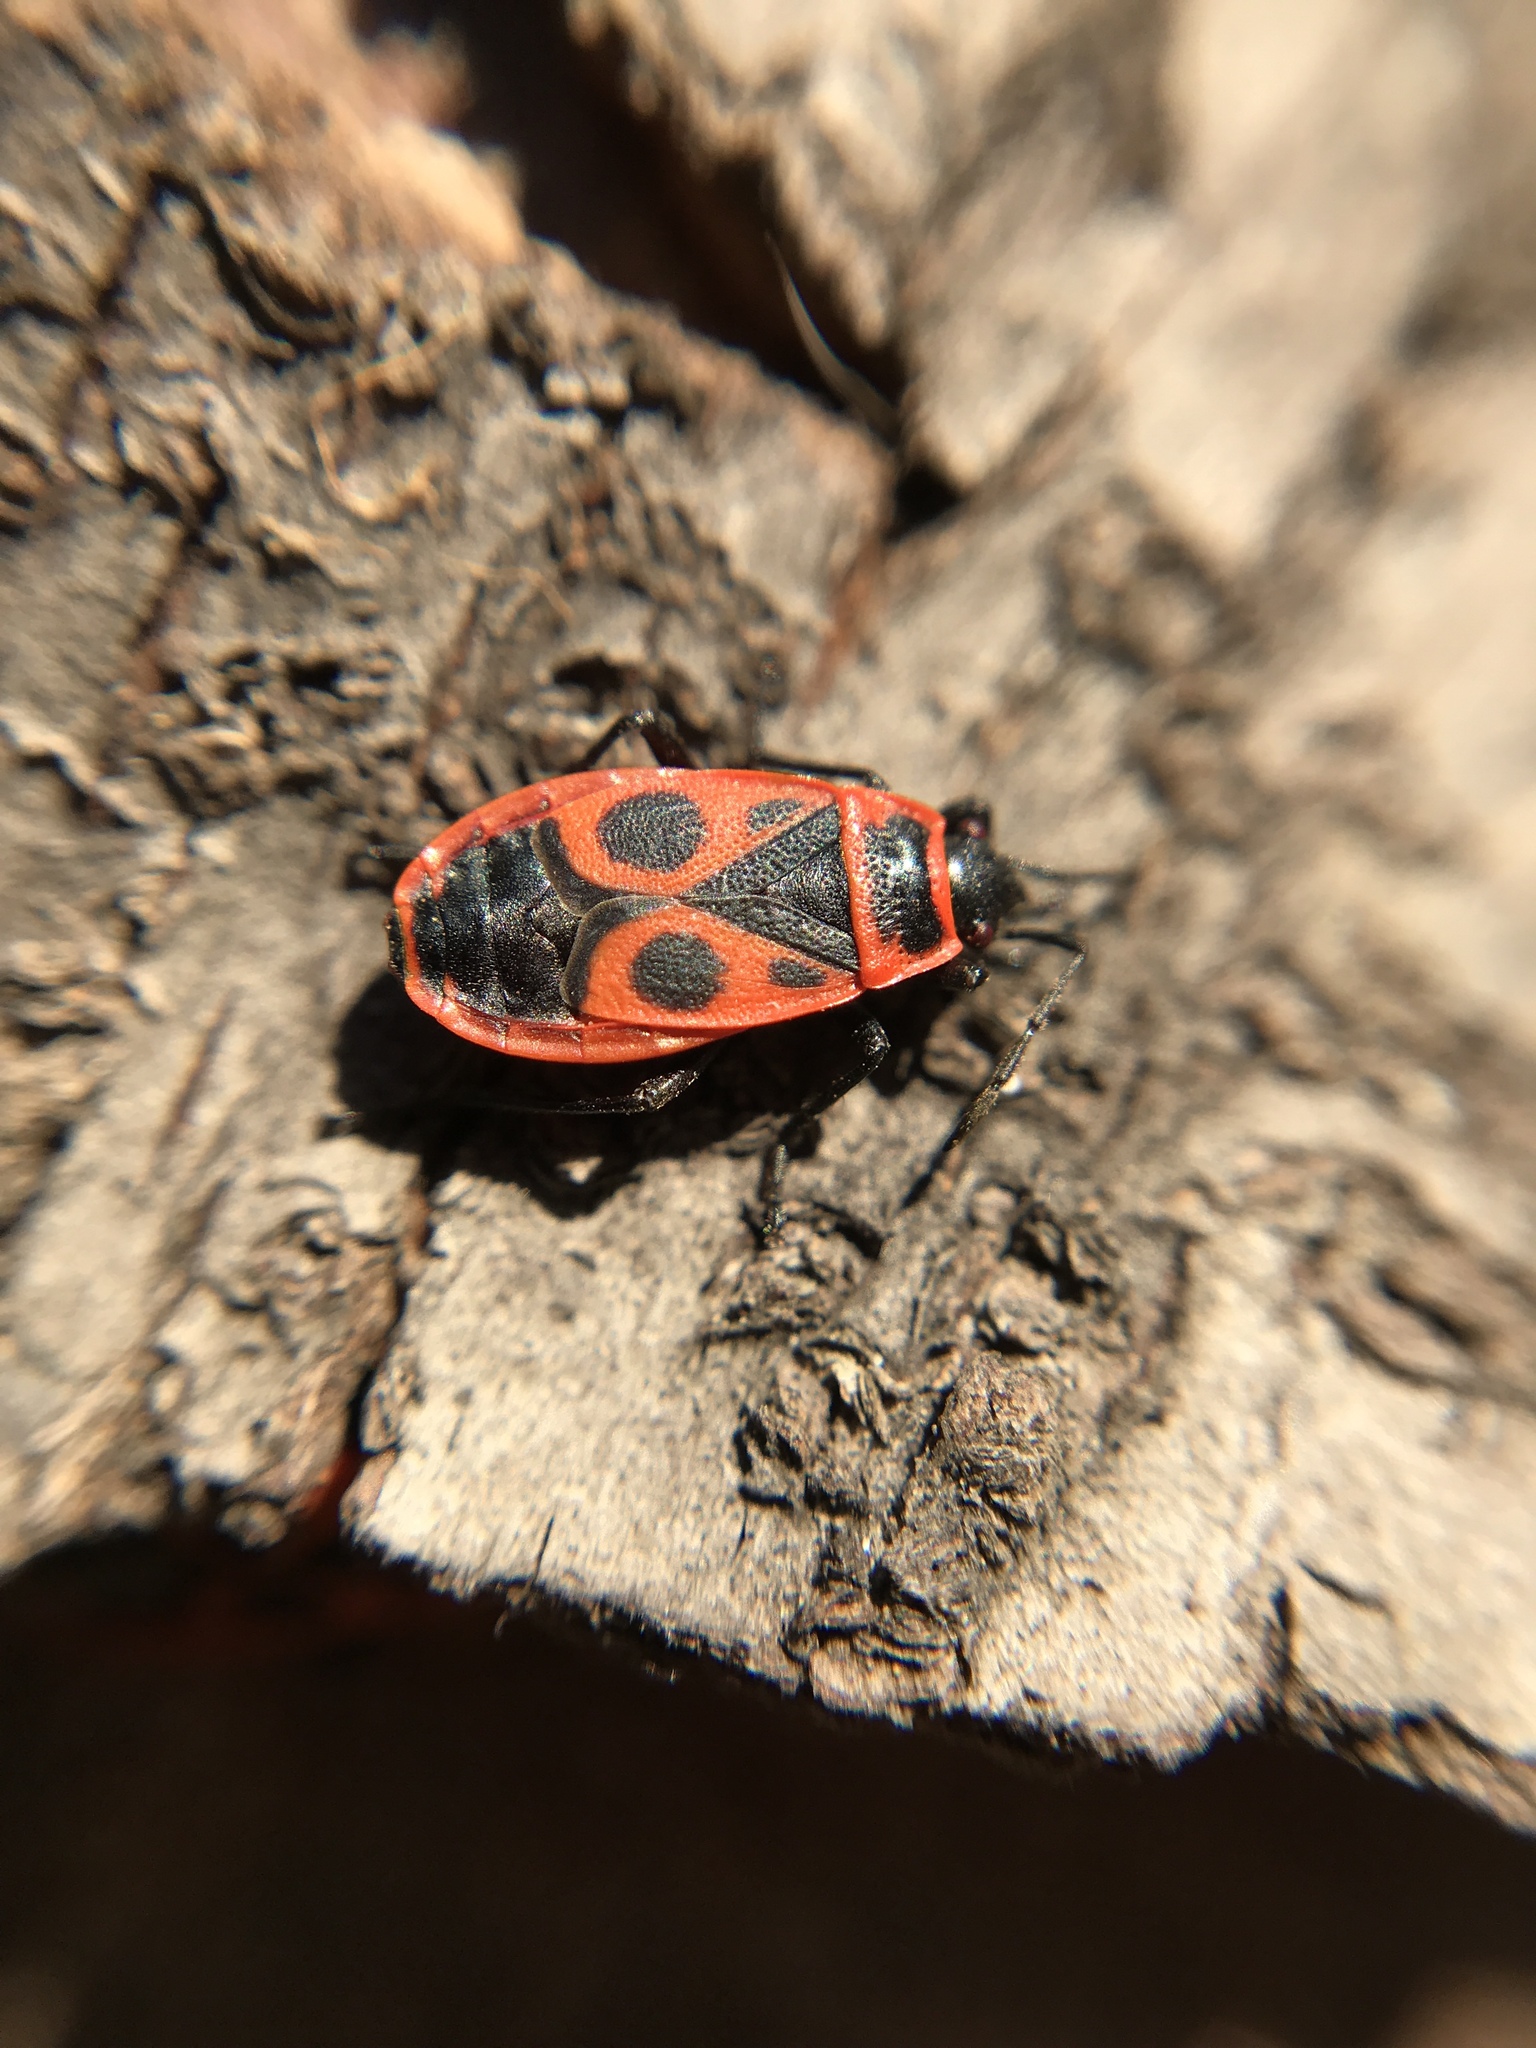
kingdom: Animalia
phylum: Arthropoda
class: Insecta
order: Hemiptera
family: Pyrrhocoridae
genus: Pyrrhocoris
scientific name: Pyrrhocoris apterus
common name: Firebug
